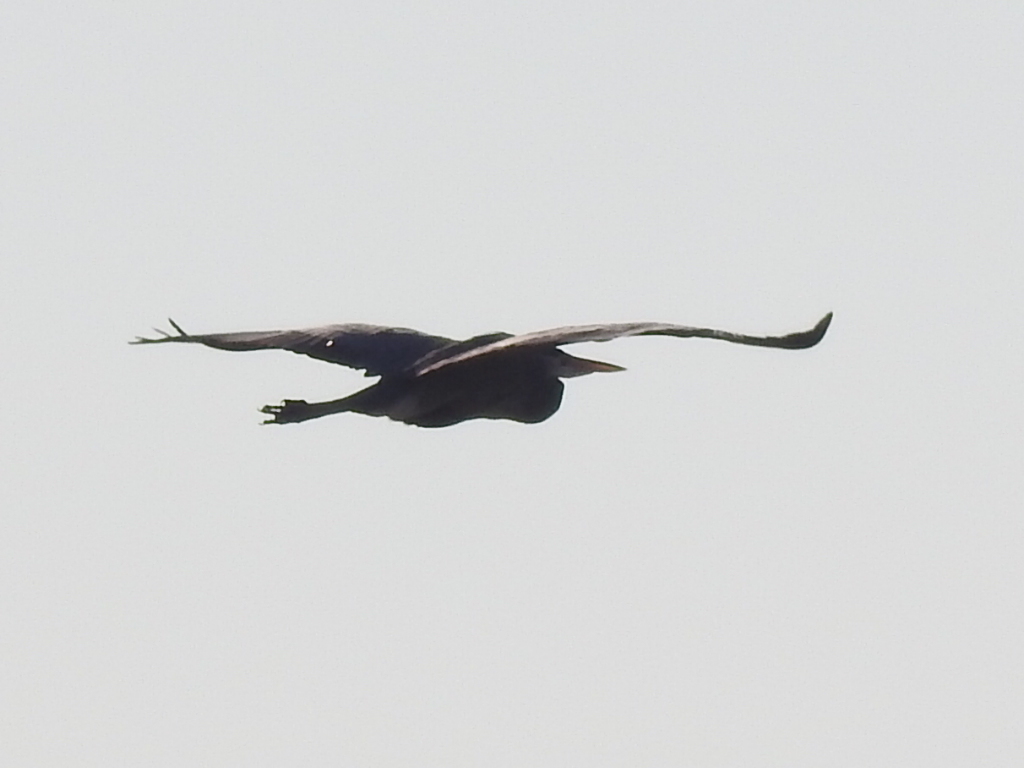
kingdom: Animalia
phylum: Chordata
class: Aves
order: Pelecaniformes
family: Ardeidae
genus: Ardea
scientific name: Ardea herodias
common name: Great blue heron
